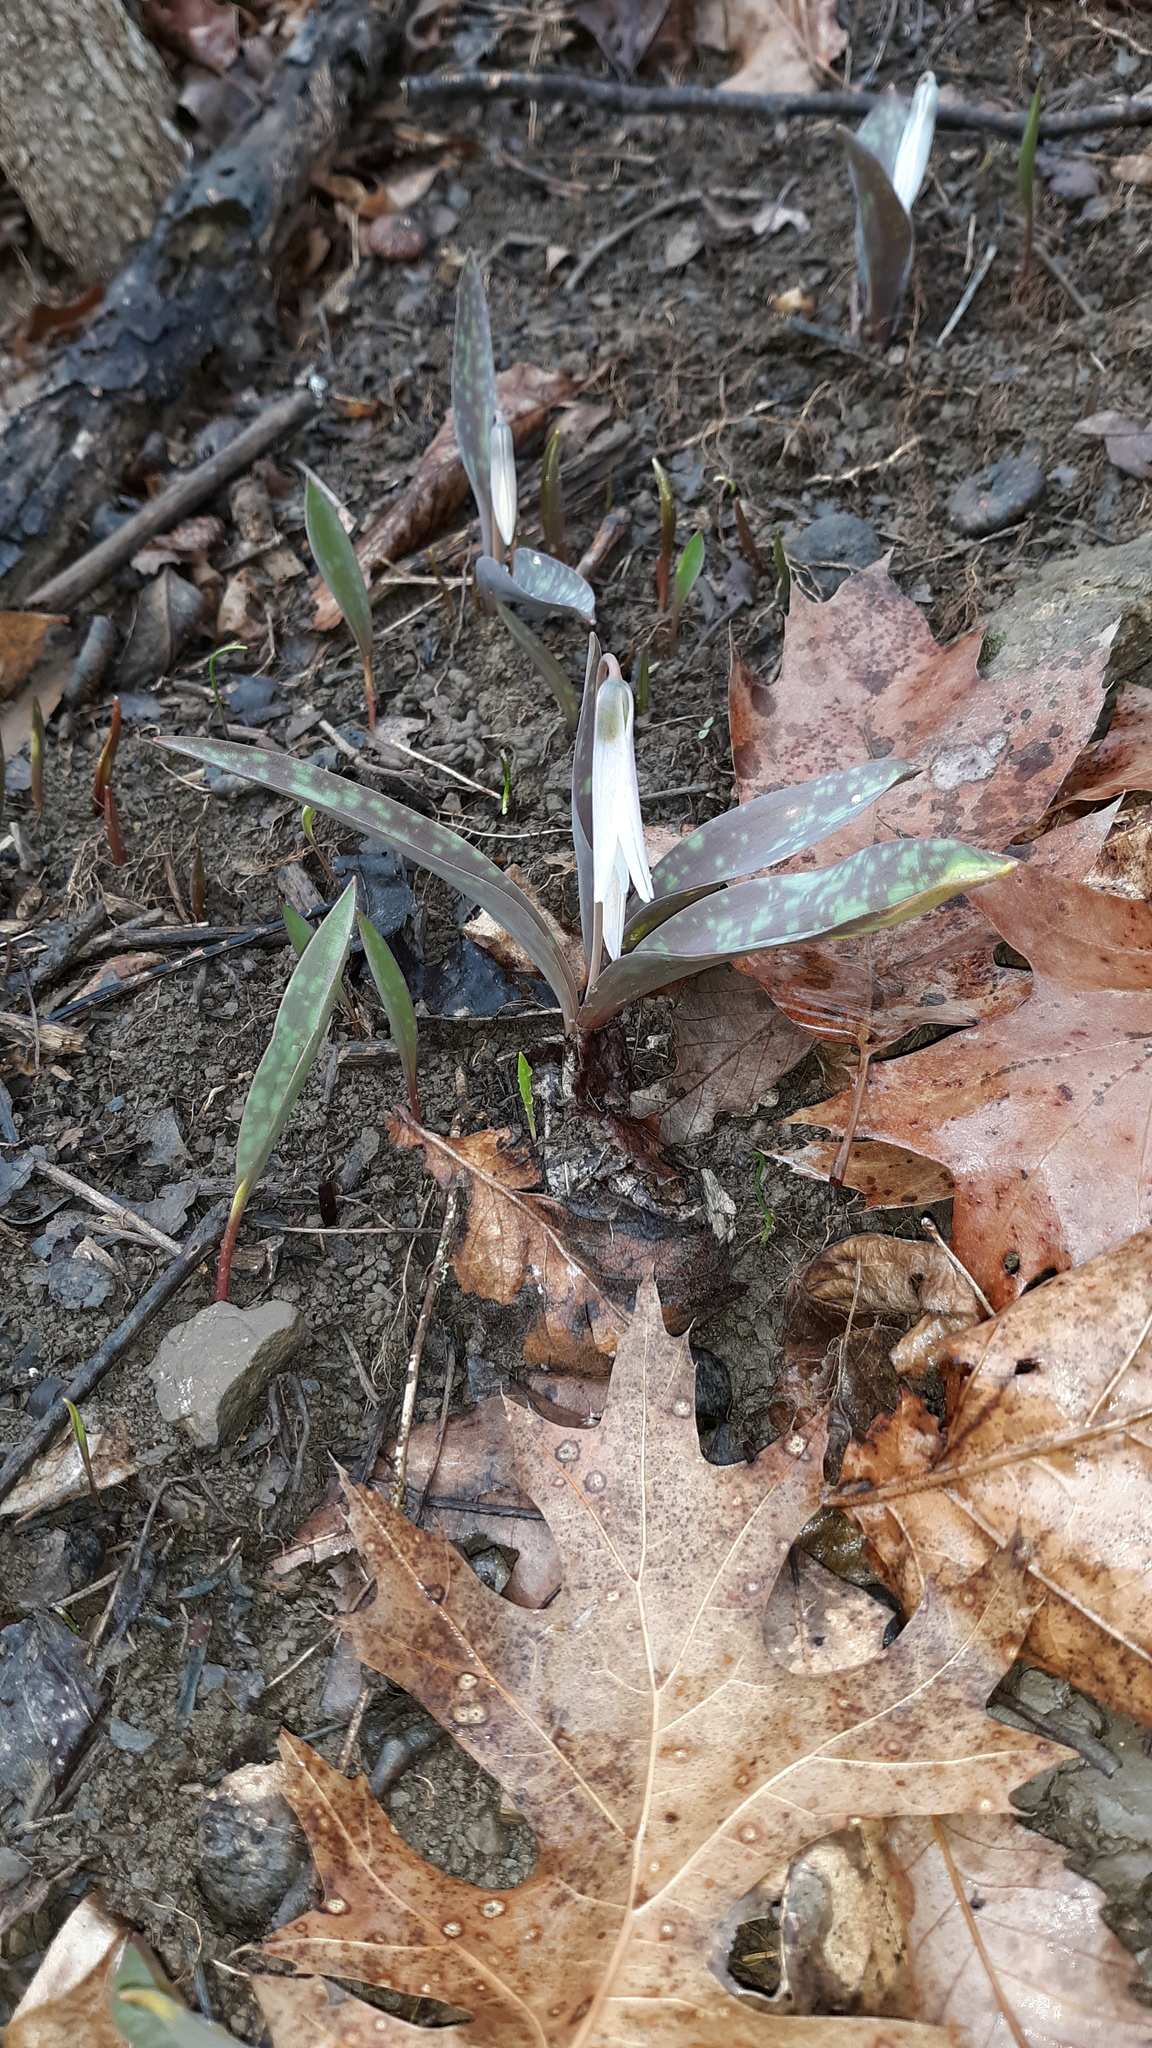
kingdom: Plantae
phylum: Tracheophyta
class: Liliopsida
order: Liliales
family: Liliaceae
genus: Erythronium
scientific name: Erythronium albidum
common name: White trout-lily
